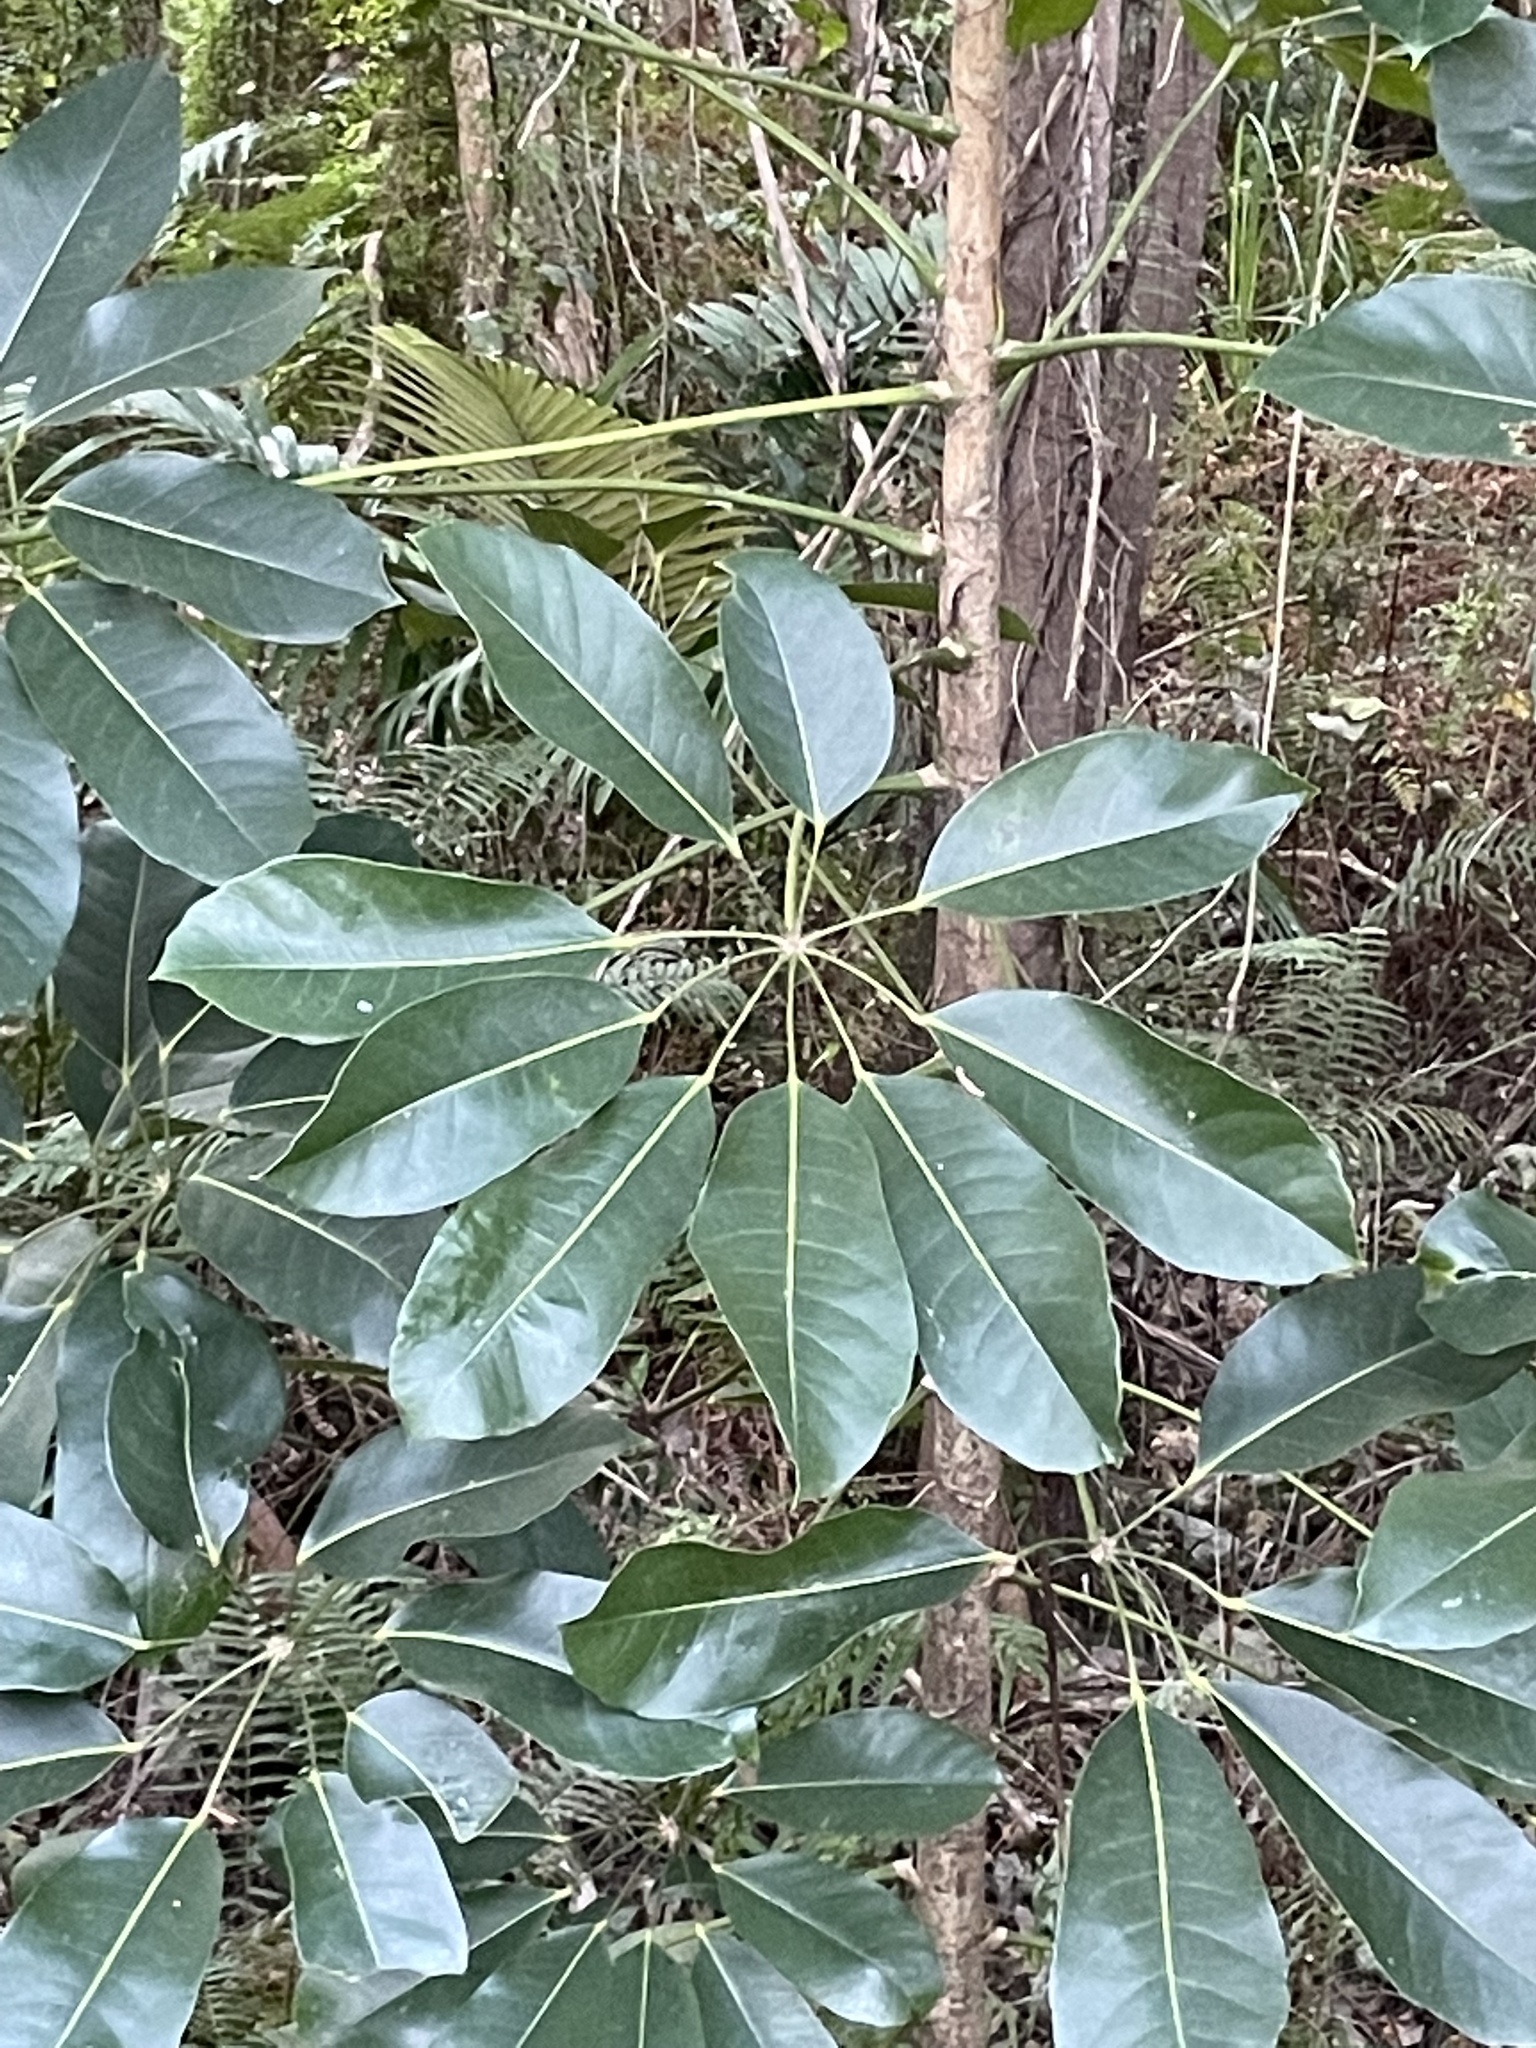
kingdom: Plantae
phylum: Tracheophyta
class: Magnoliopsida
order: Apiales
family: Araliaceae
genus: Heptapleurum
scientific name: Heptapleurum actinophyllum
